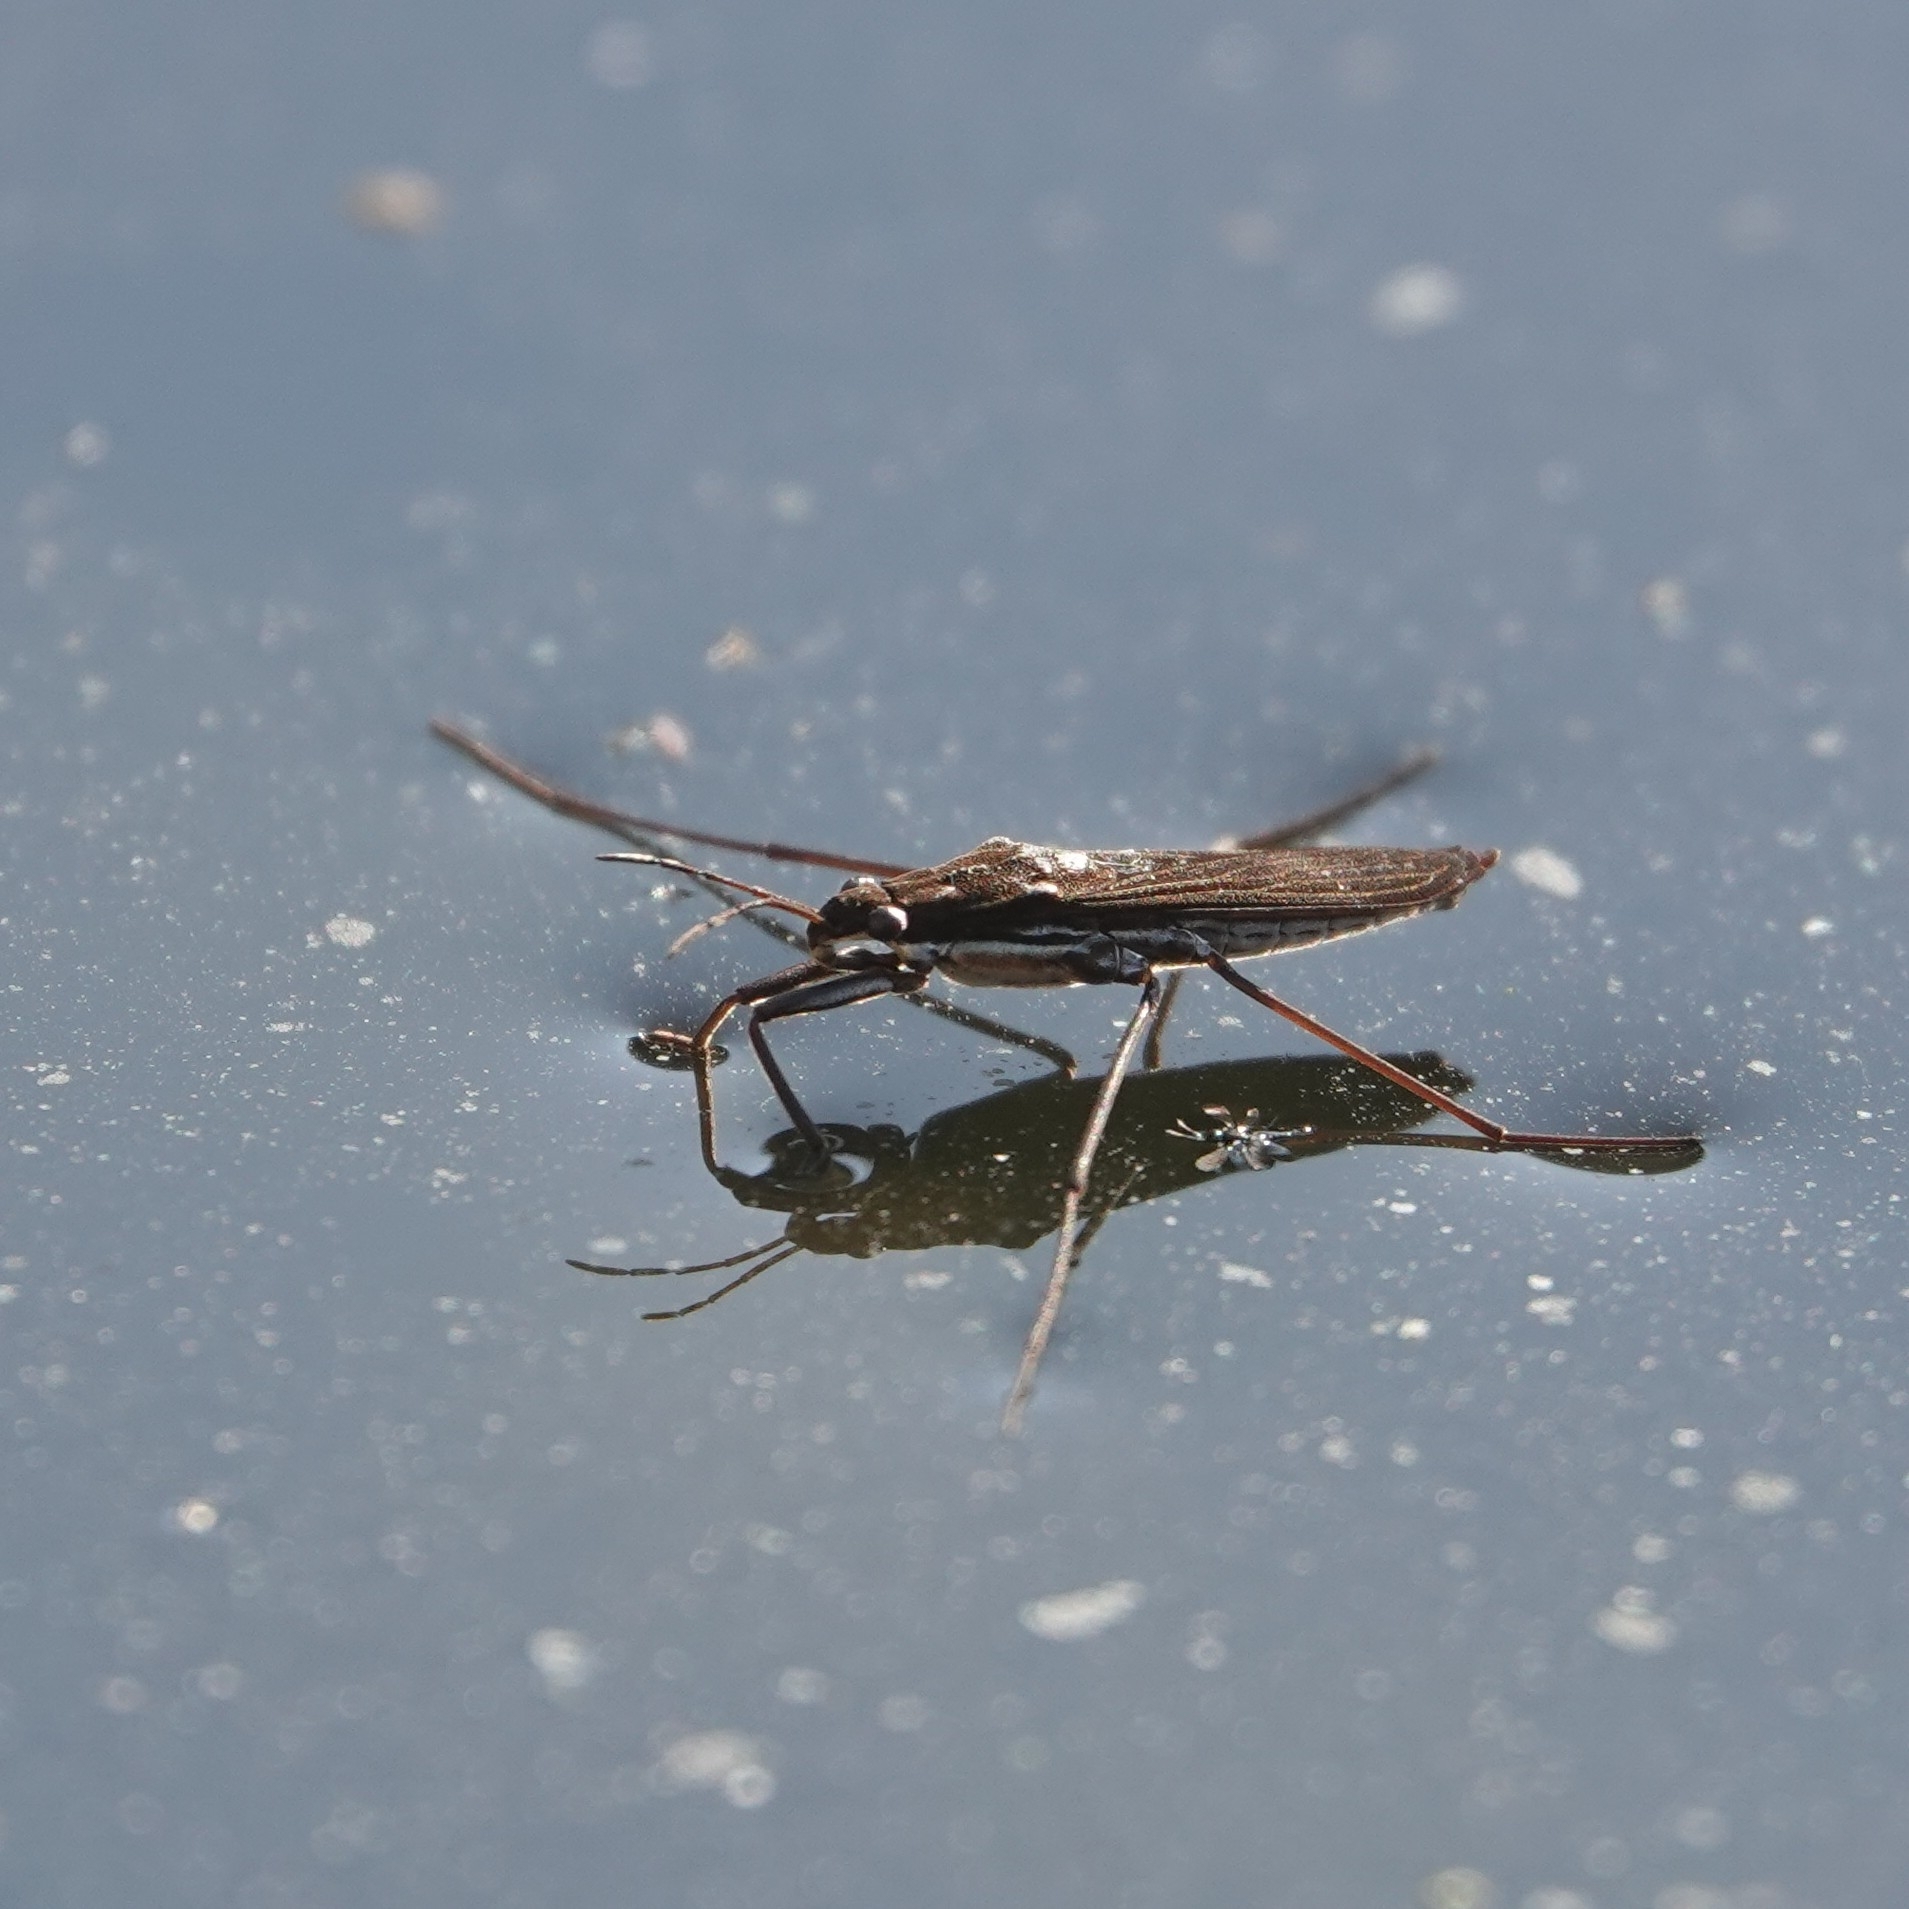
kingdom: Animalia
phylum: Arthropoda
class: Insecta
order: Hemiptera
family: Gerridae
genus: Gerris
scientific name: Gerris
